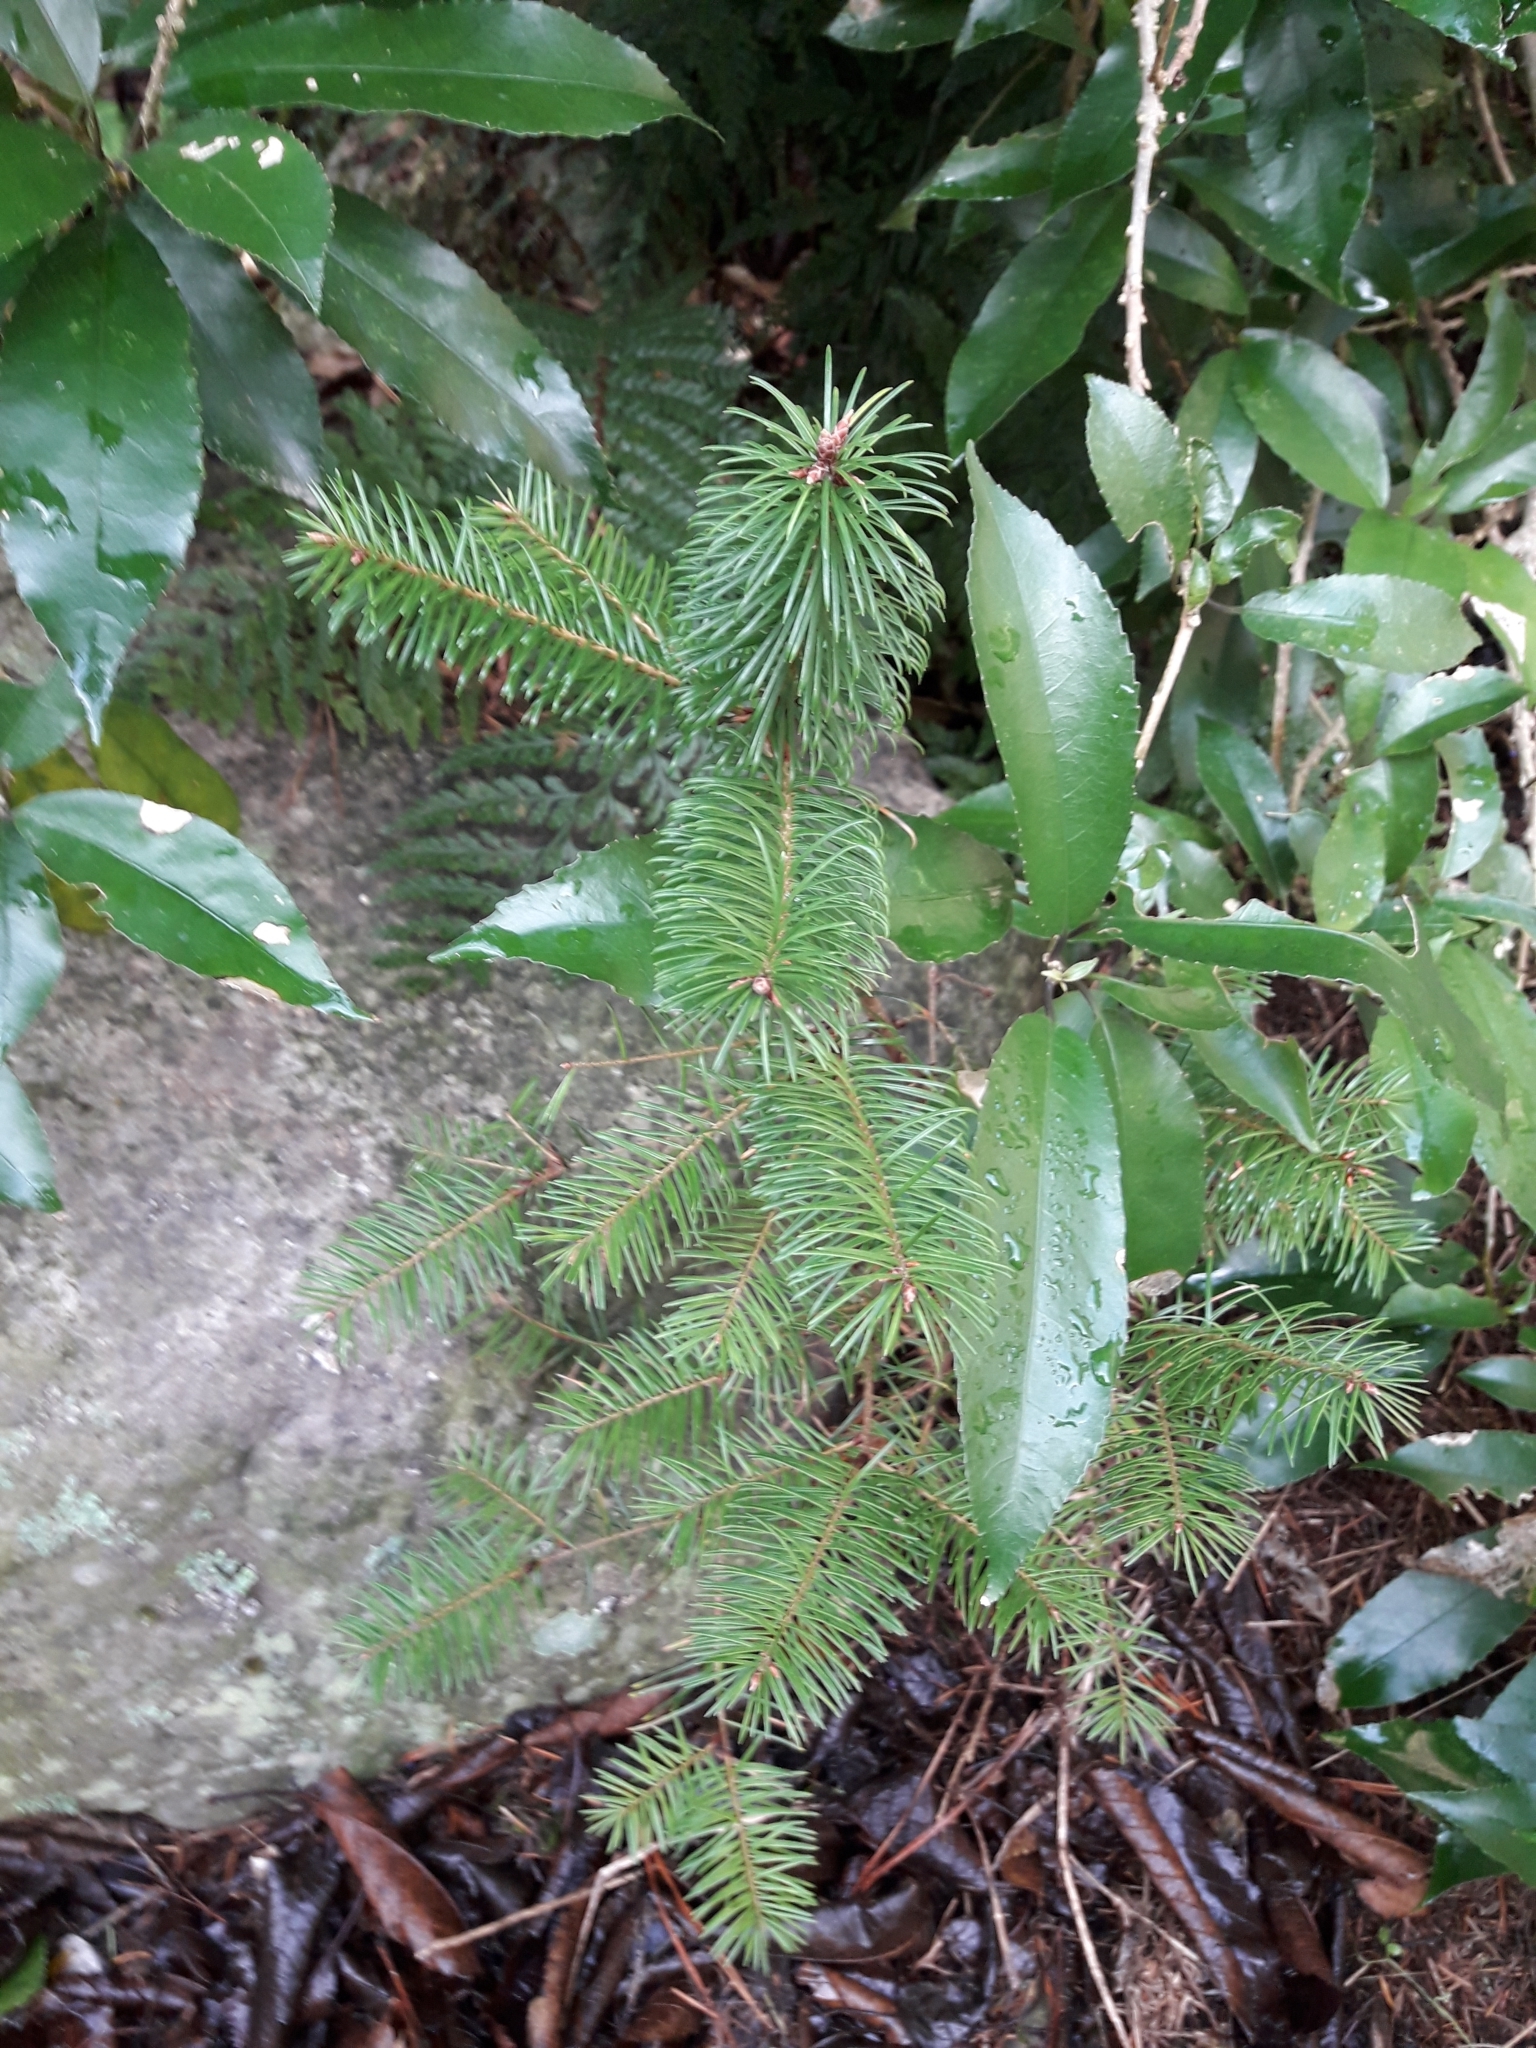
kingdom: Plantae
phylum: Tracheophyta
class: Pinopsida
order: Pinales
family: Pinaceae
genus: Pseudotsuga
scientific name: Pseudotsuga menziesii
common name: Douglas fir
